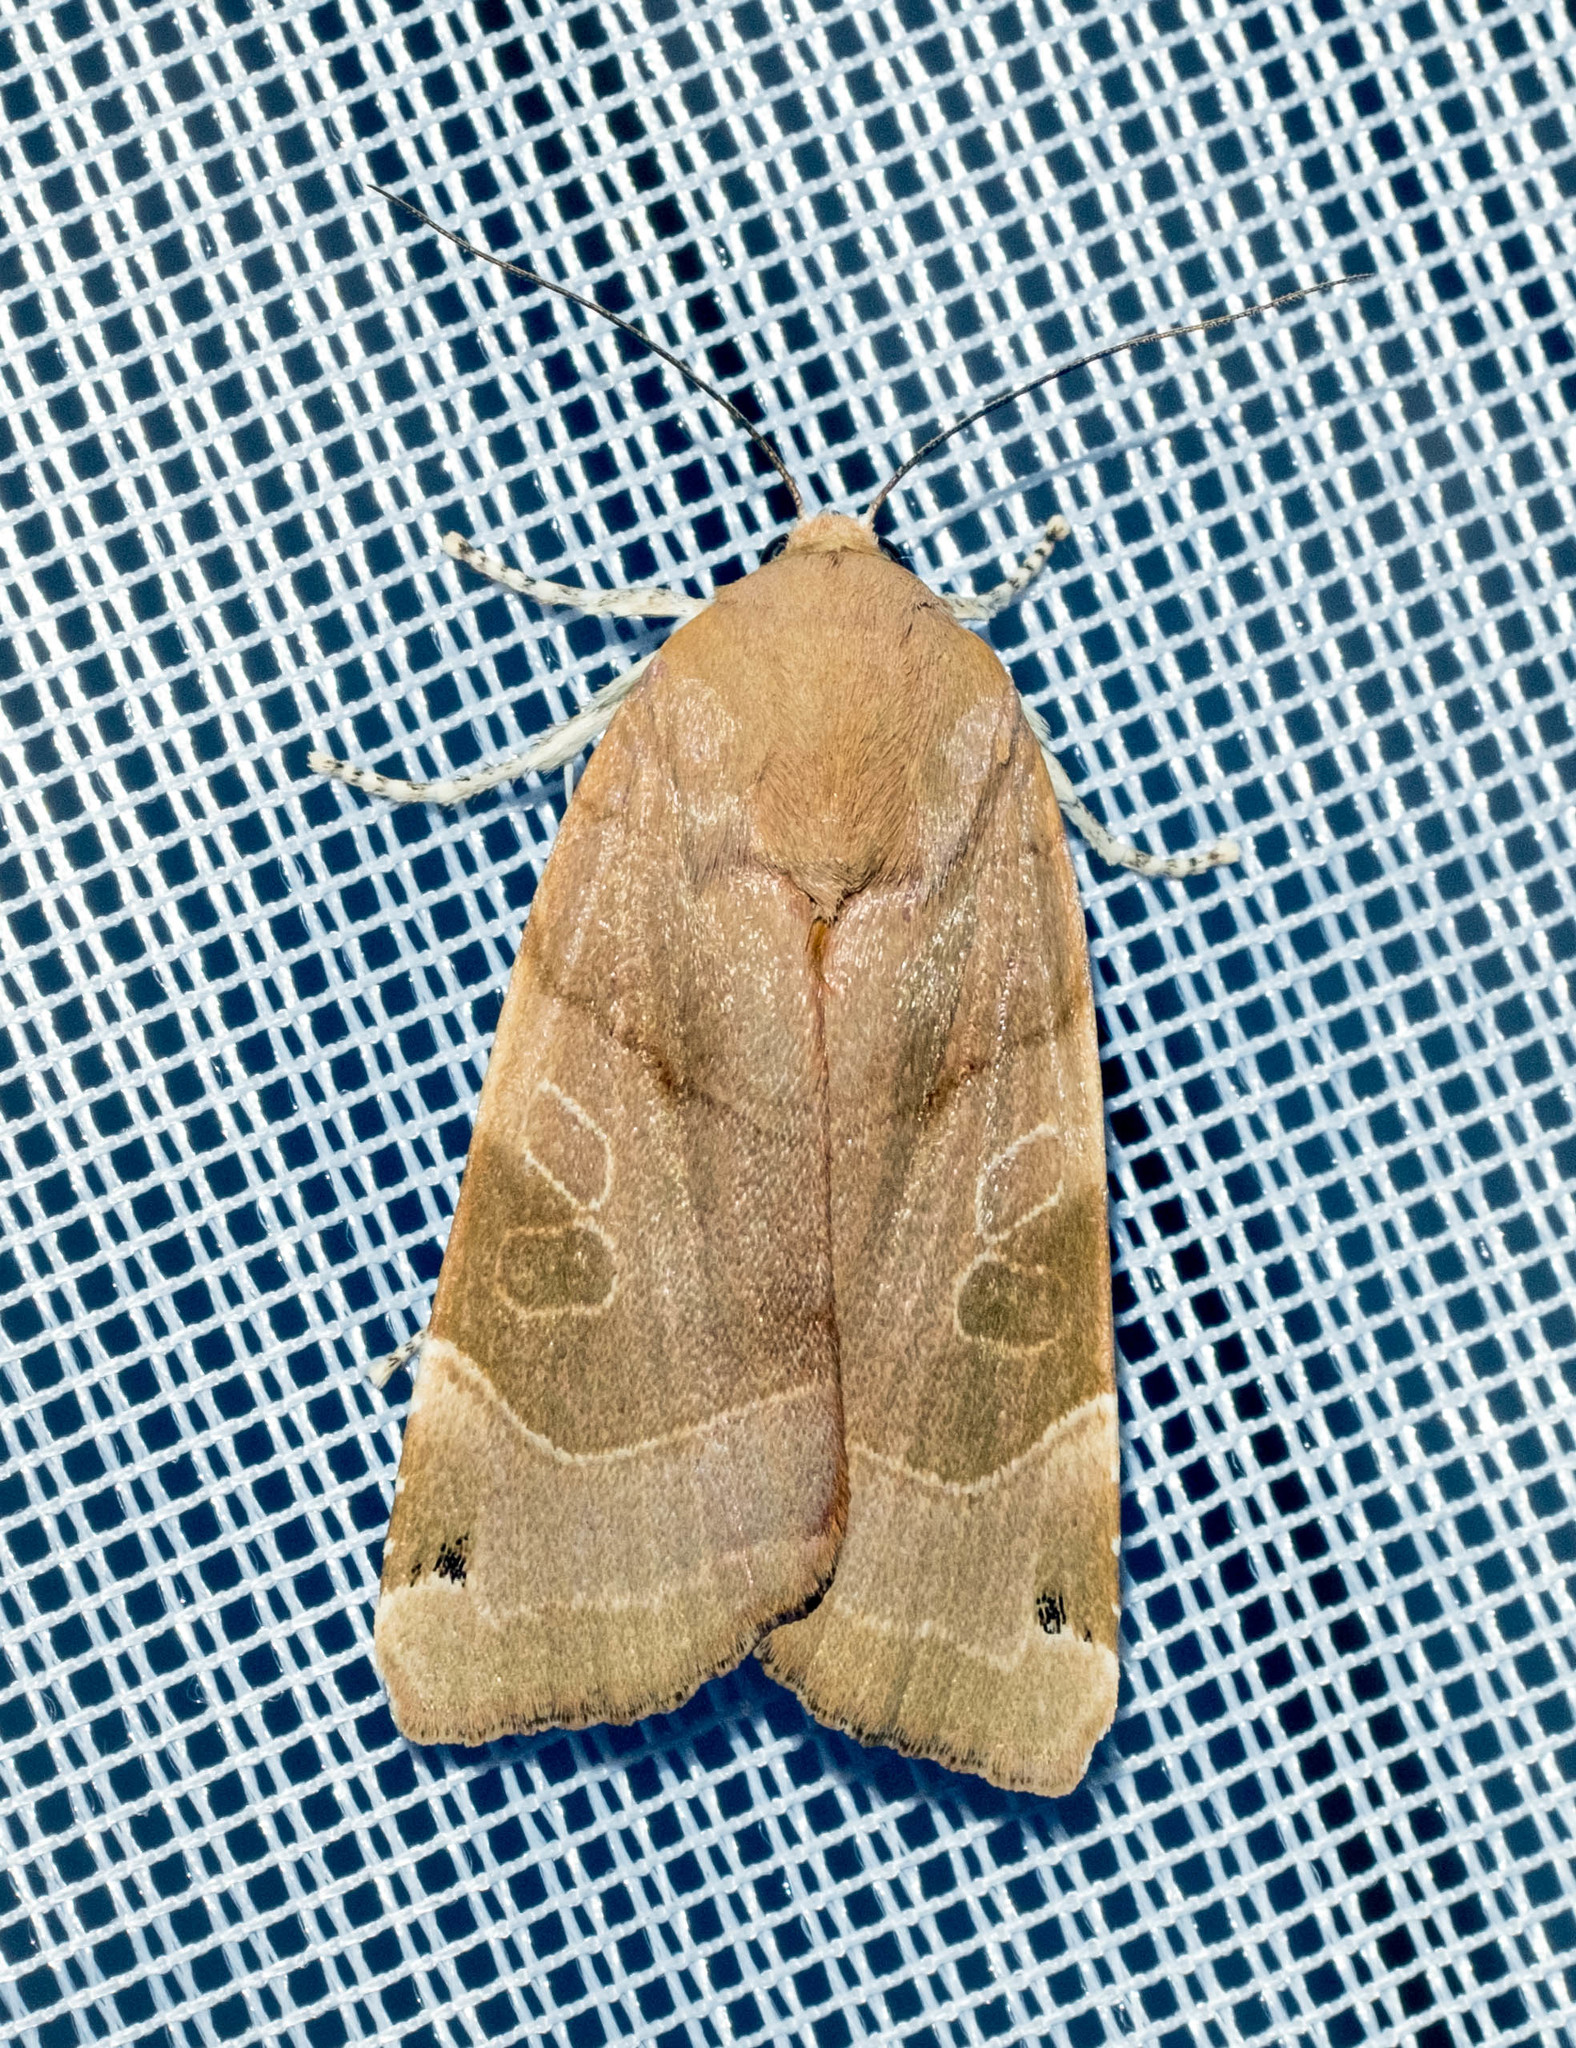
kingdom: Animalia
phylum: Arthropoda
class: Insecta
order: Lepidoptera
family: Noctuidae
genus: Noctua
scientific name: Noctua fimbriata
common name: Broad-bordered yellow underwing
